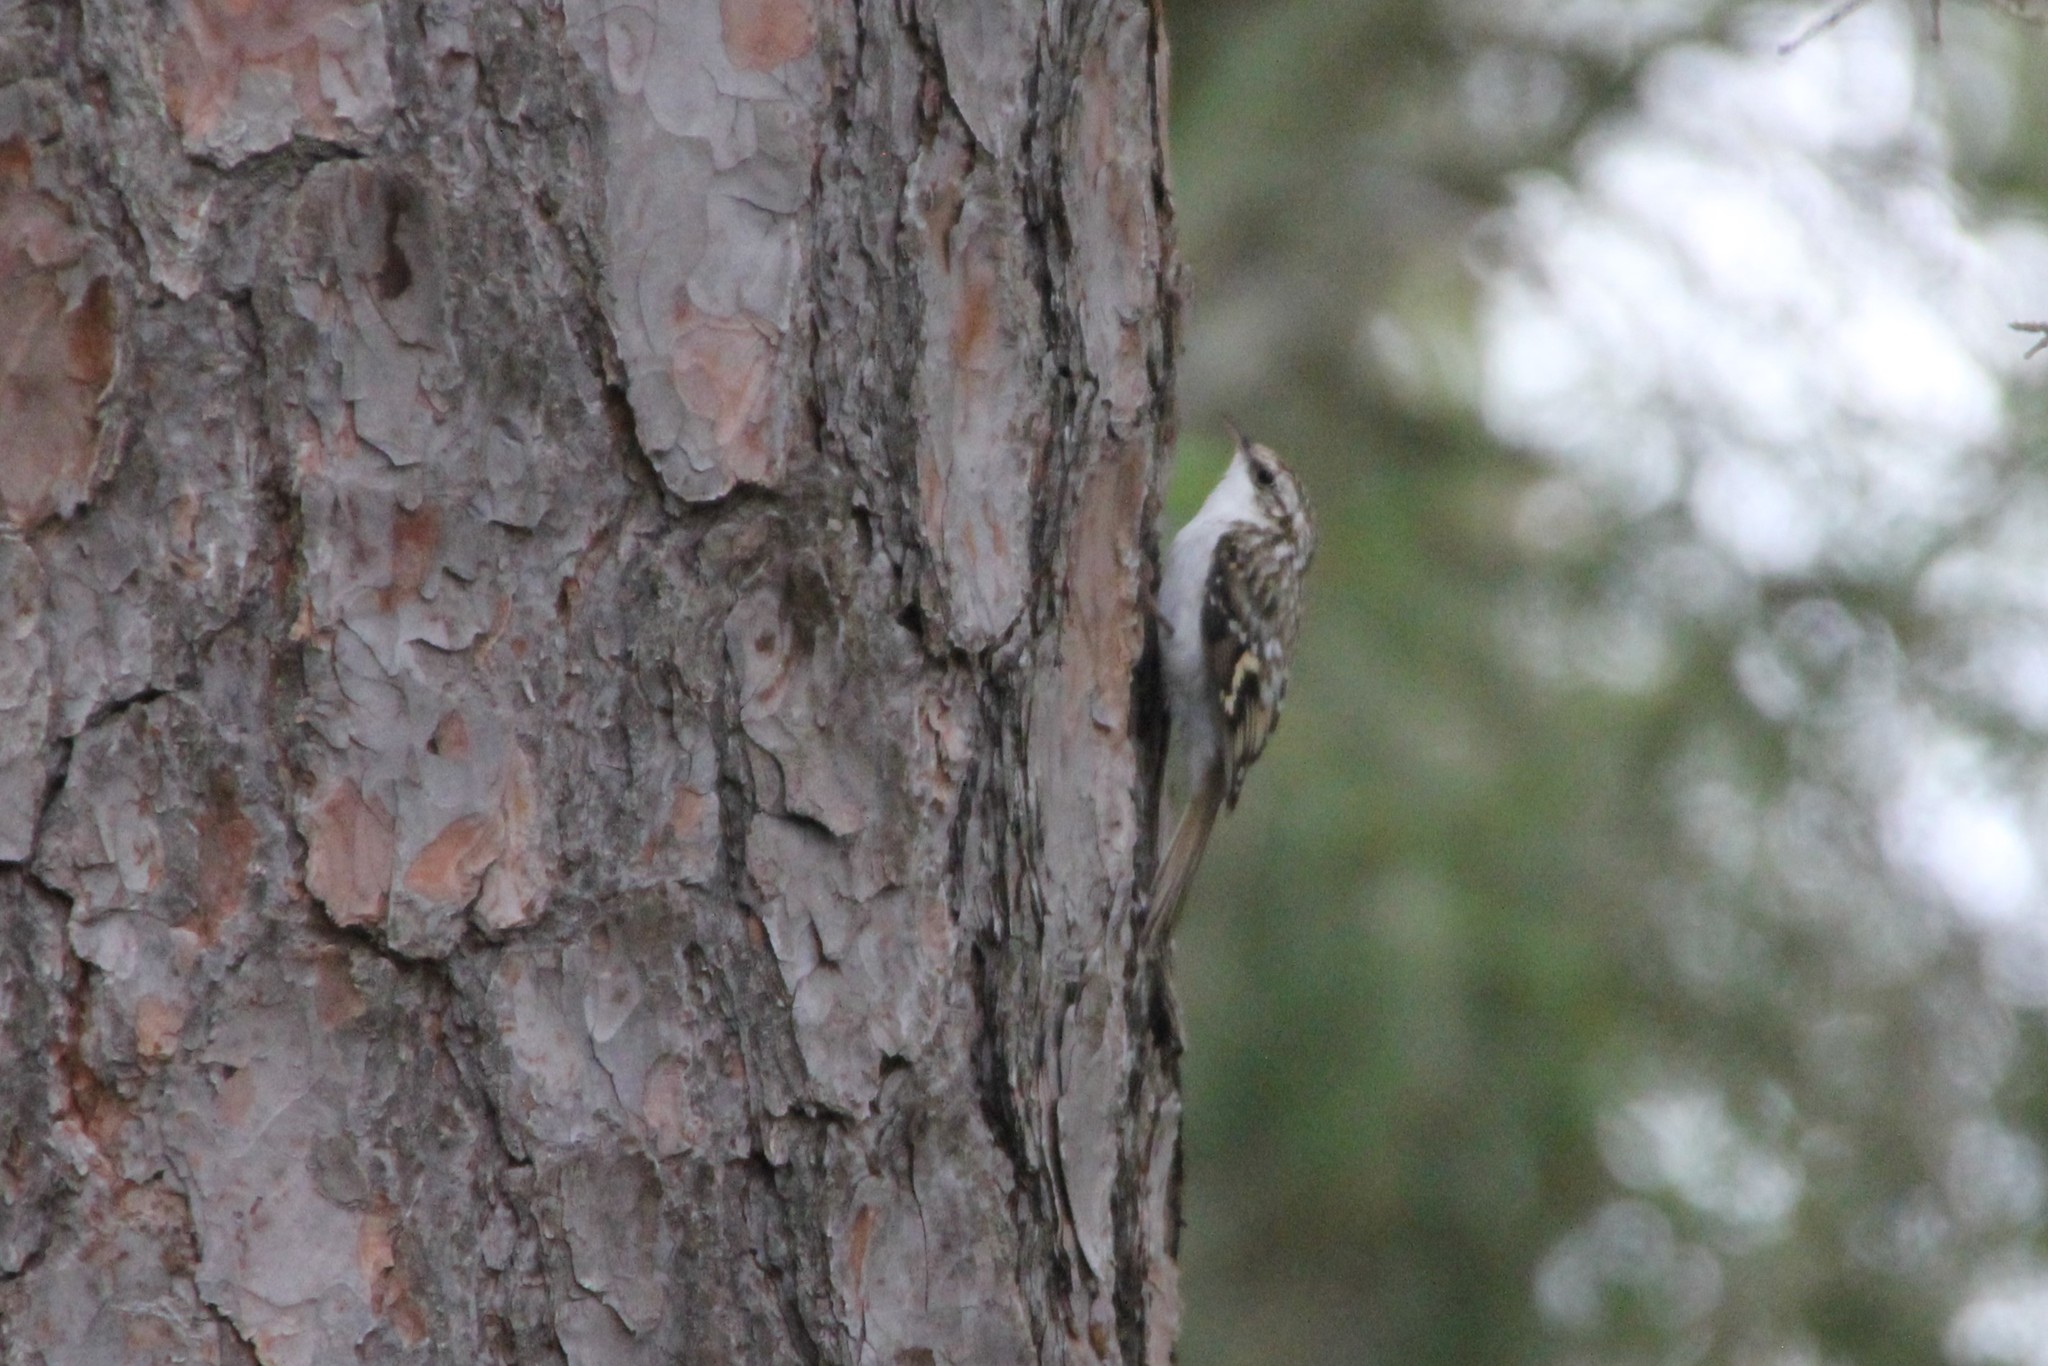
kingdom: Animalia
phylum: Chordata
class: Aves
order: Passeriformes
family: Certhiidae
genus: Certhia
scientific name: Certhia familiaris
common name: Eurasian treecreeper
